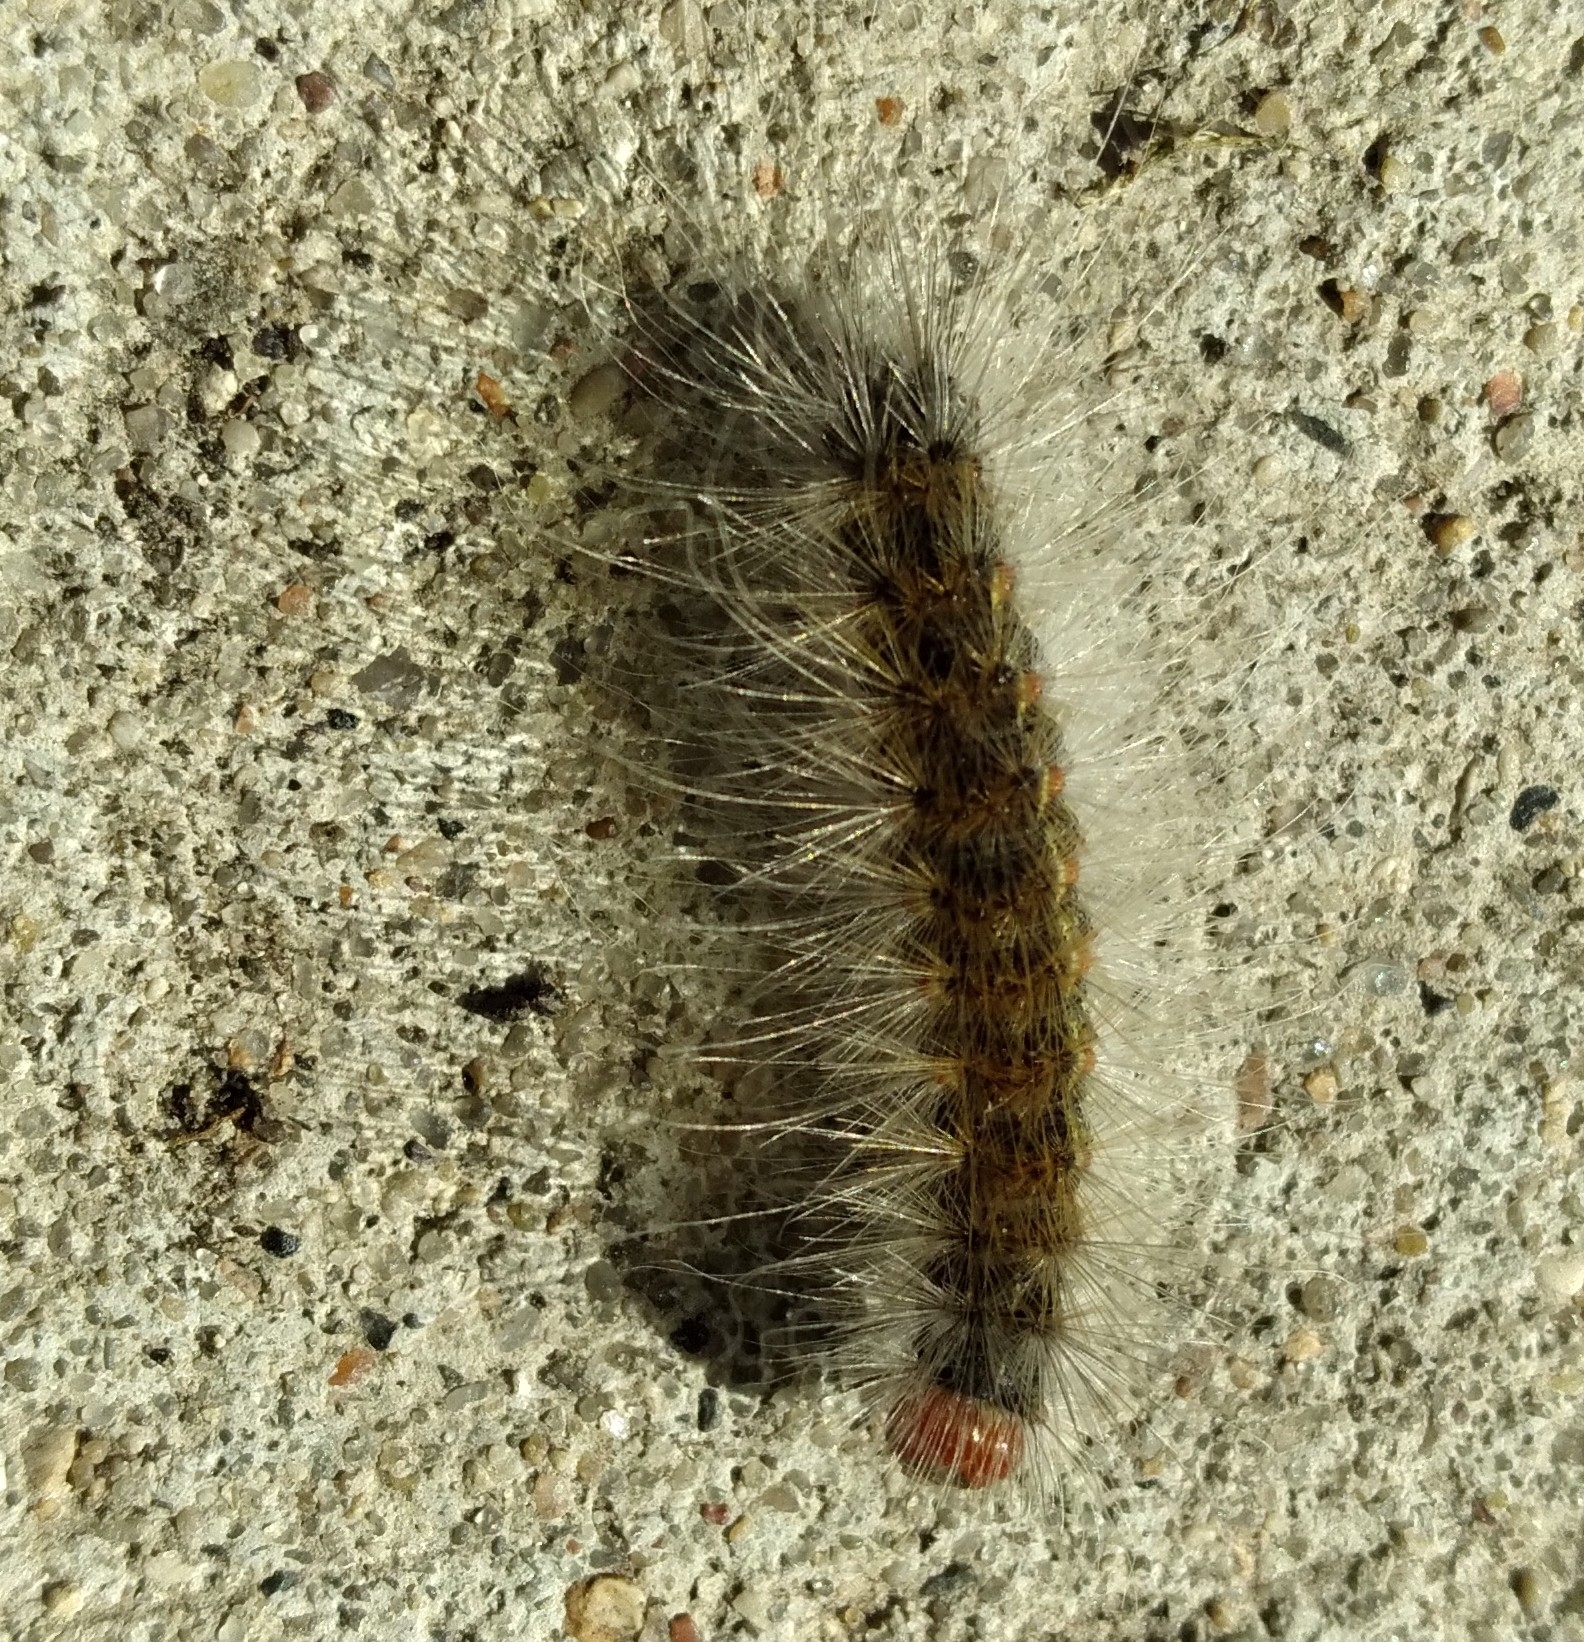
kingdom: Animalia
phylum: Arthropoda
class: Insecta
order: Lepidoptera
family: Erebidae
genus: Hyphantria
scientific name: Hyphantria cunea
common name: American white moth
